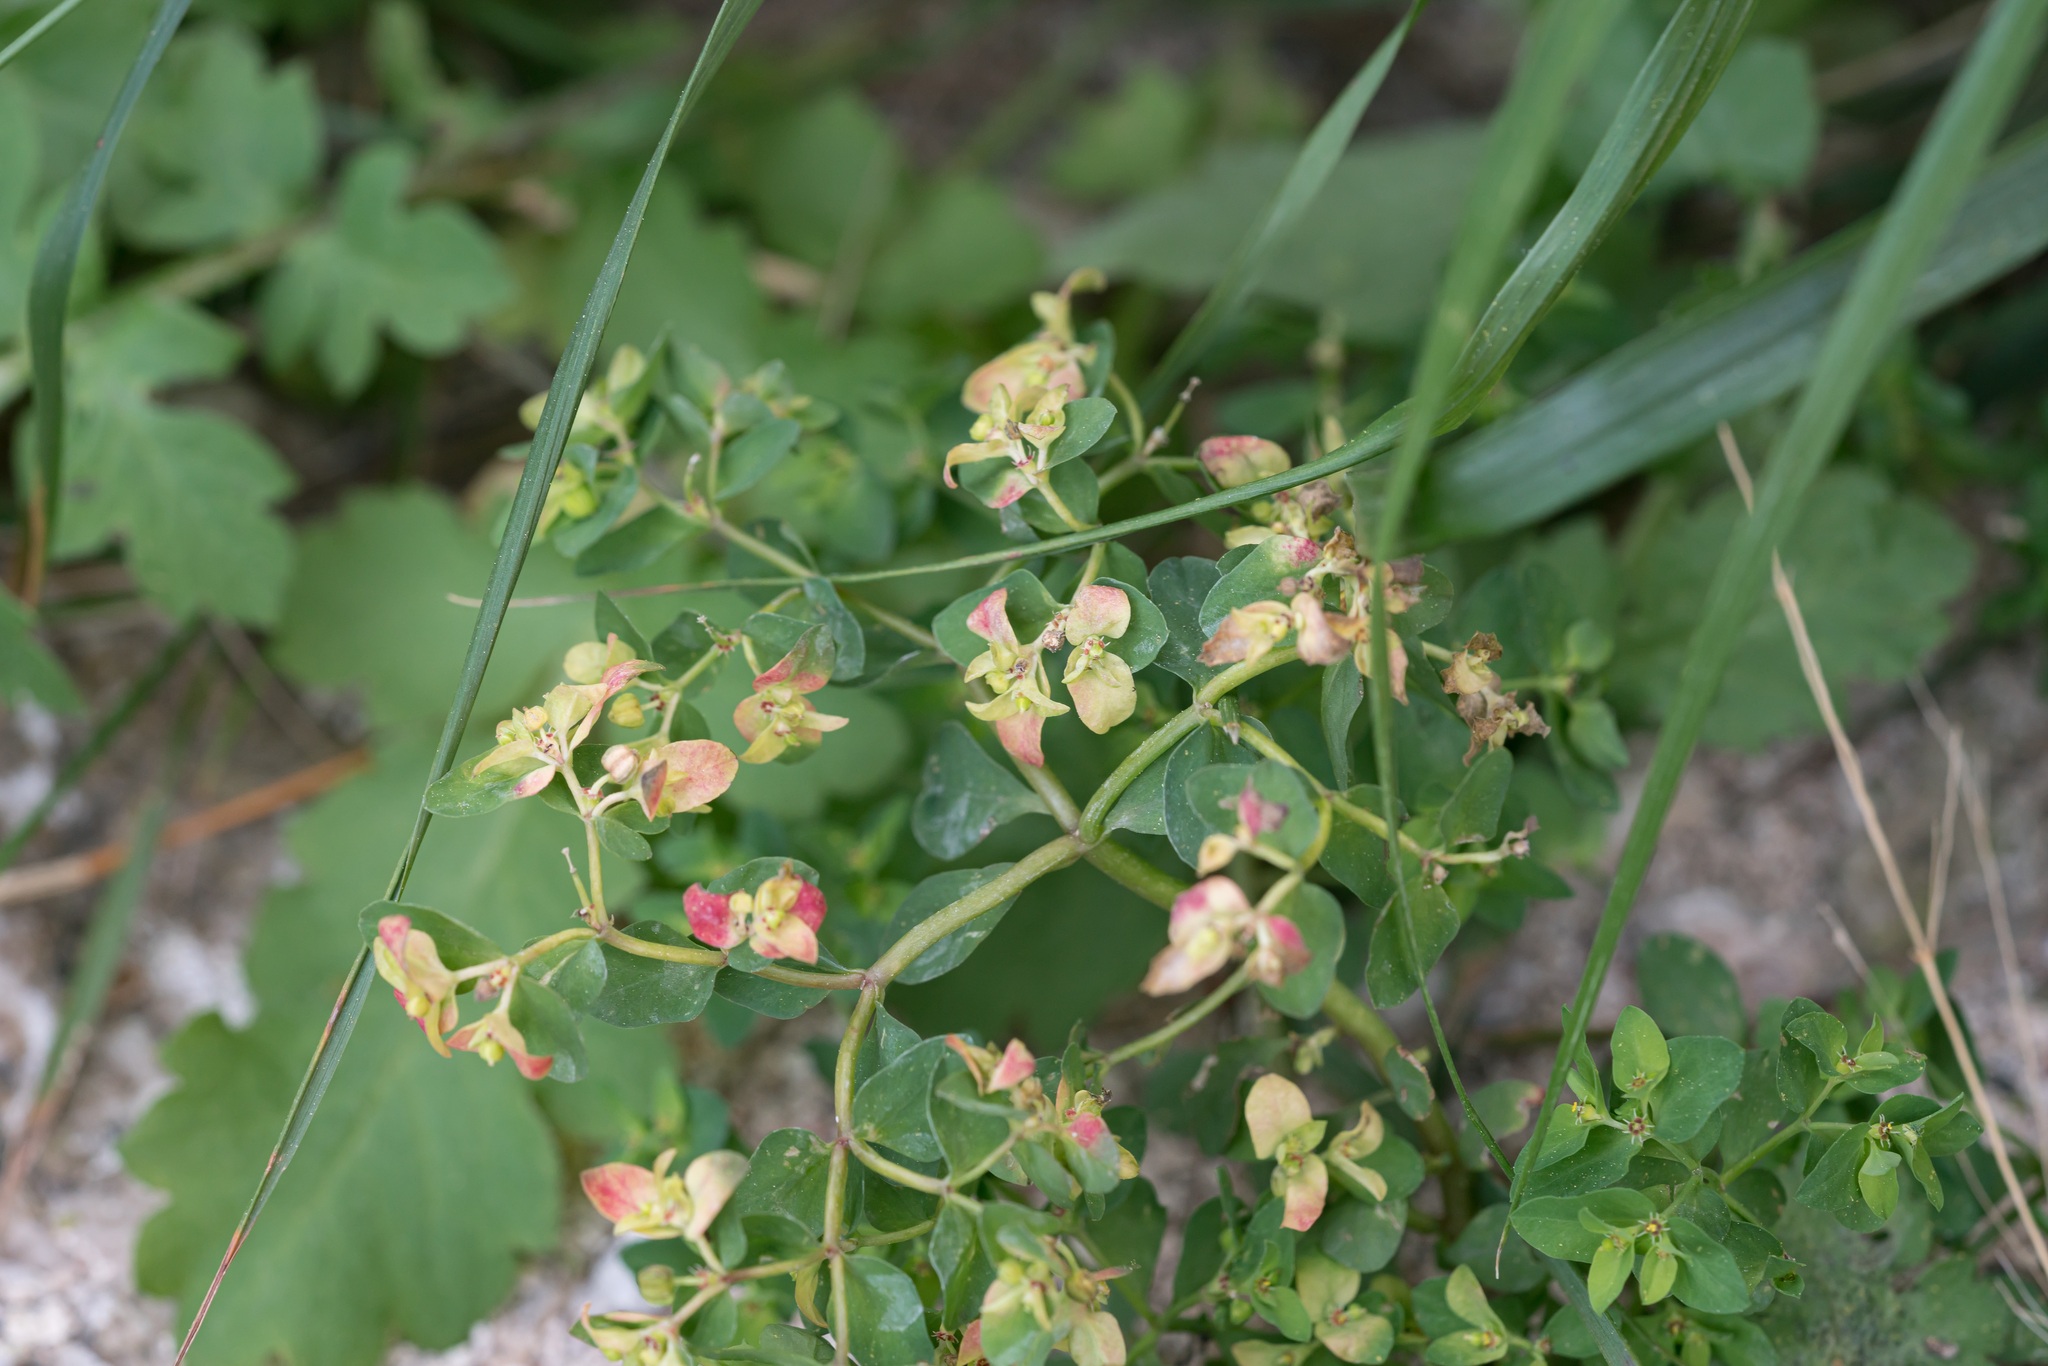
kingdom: Plantae
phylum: Tracheophyta
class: Magnoliopsida
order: Malpighiales
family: Euphorbiaceae
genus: Euphorbia
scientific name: Euphorbia peplus
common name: Petty spurge
